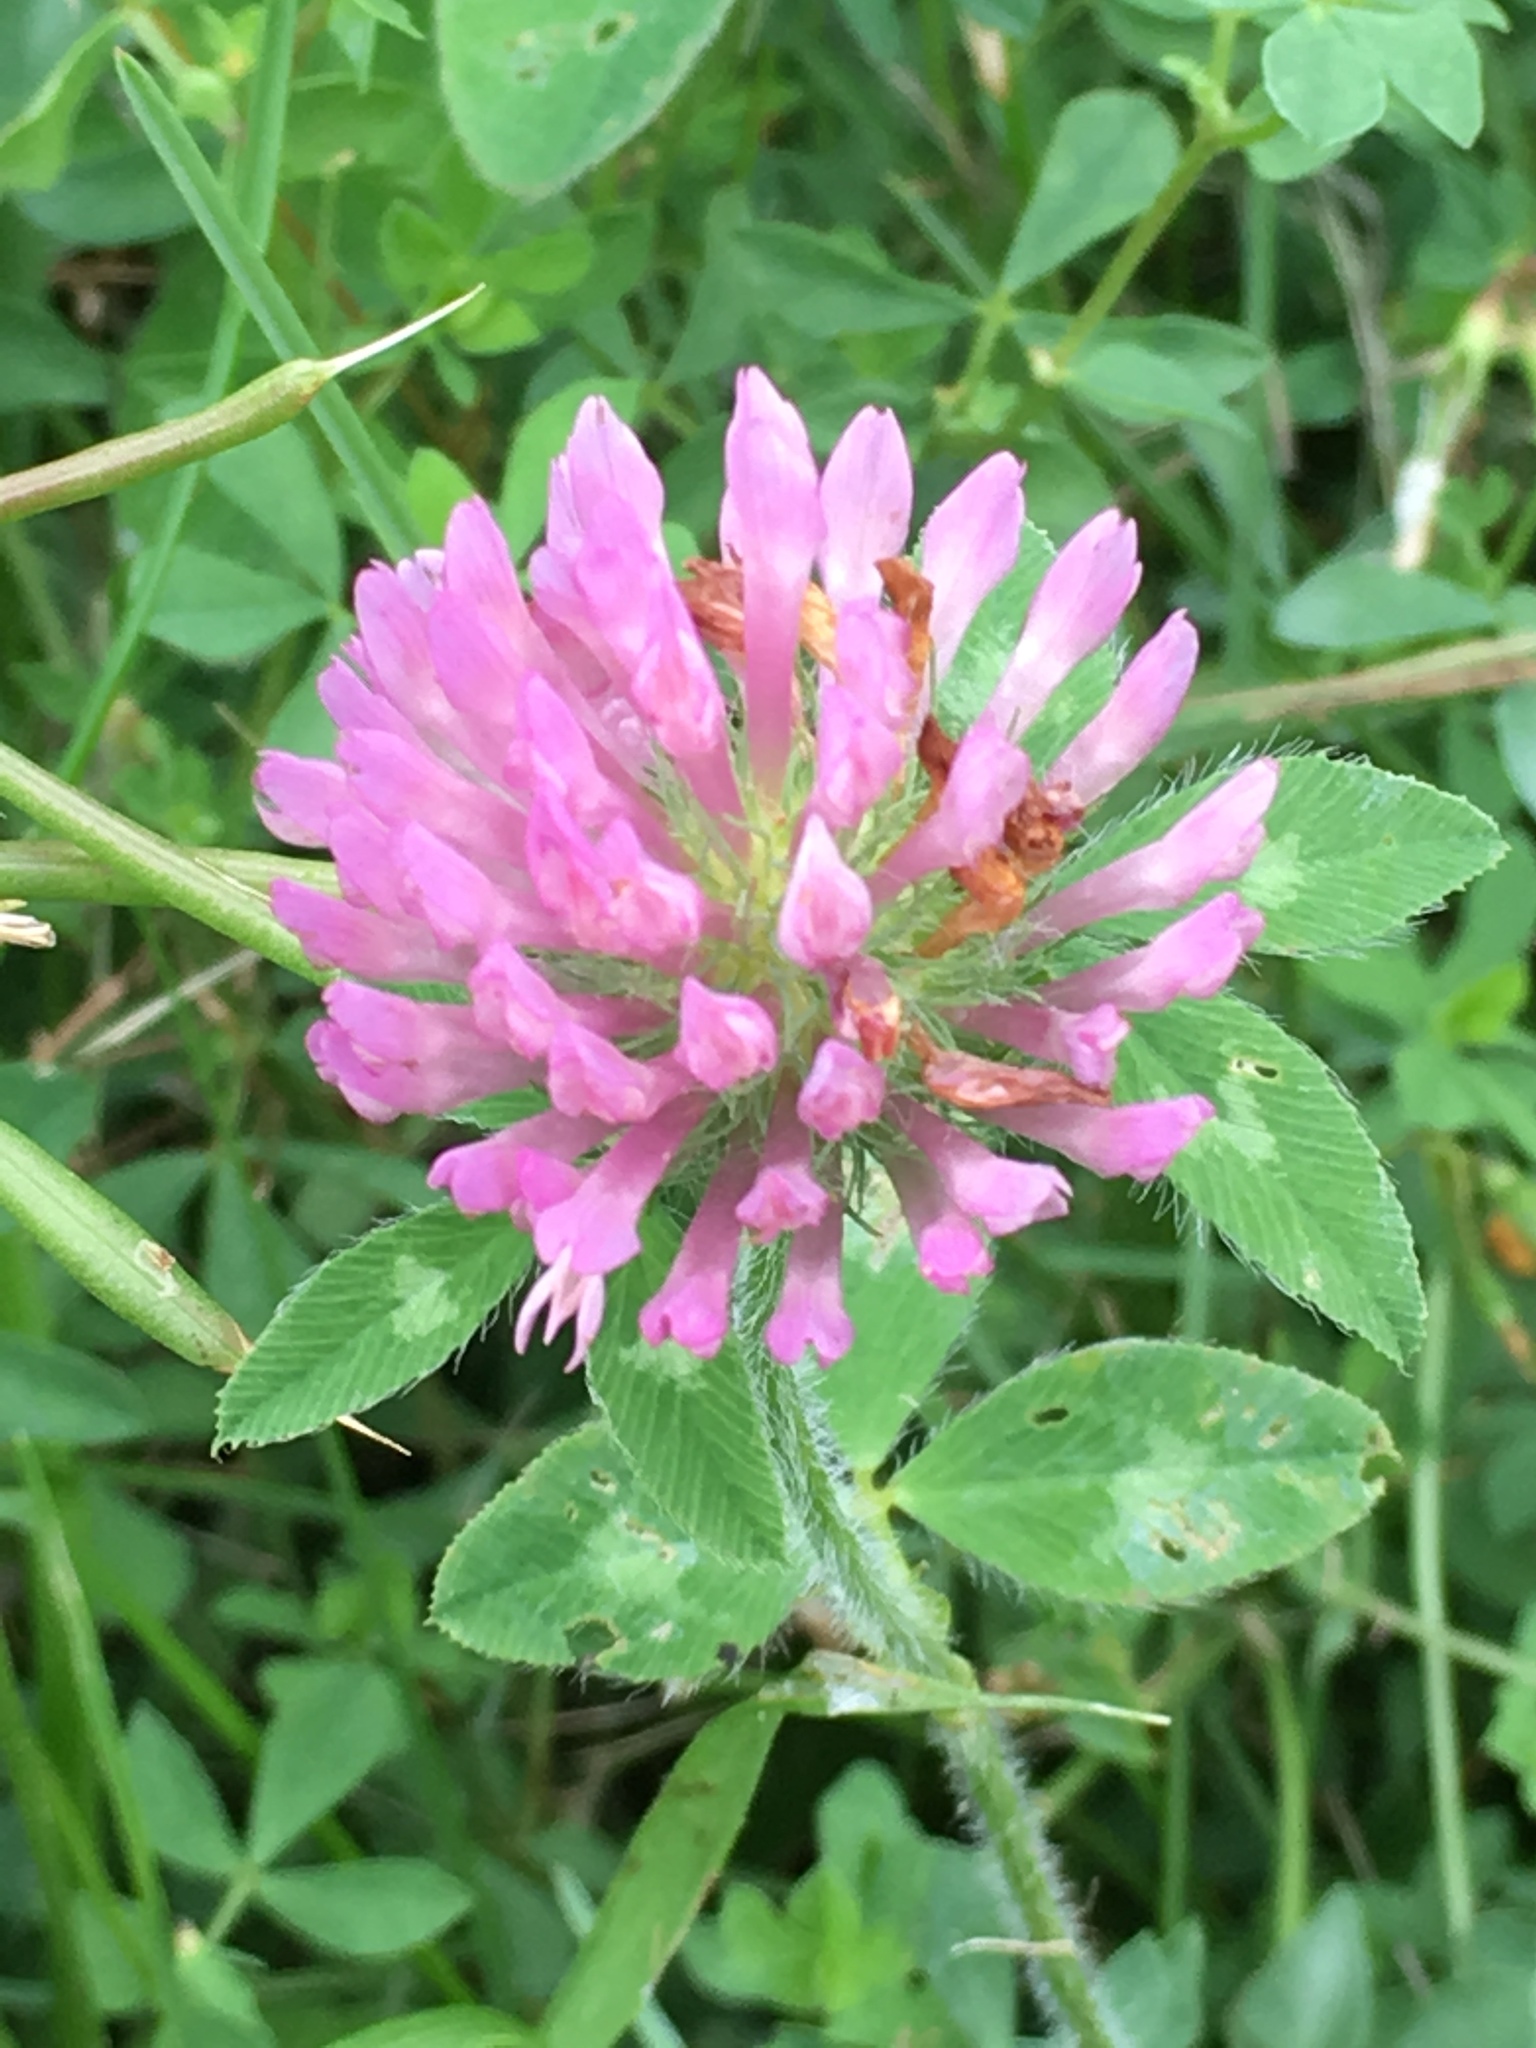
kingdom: Plantae
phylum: Tracheophyta
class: Magnoliopsida
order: Fabales
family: Fabaceae
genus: Trifolium
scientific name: Trifolium pratense
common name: Red clover
